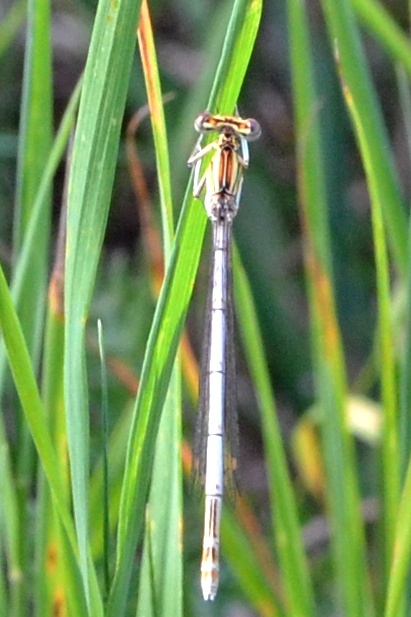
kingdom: Animalia
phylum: Arthropoda
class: Insecta
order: Odonata
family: Platycnemididae
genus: Platycnemis
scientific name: Platycnemis pennipes
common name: White-legged damselfly
